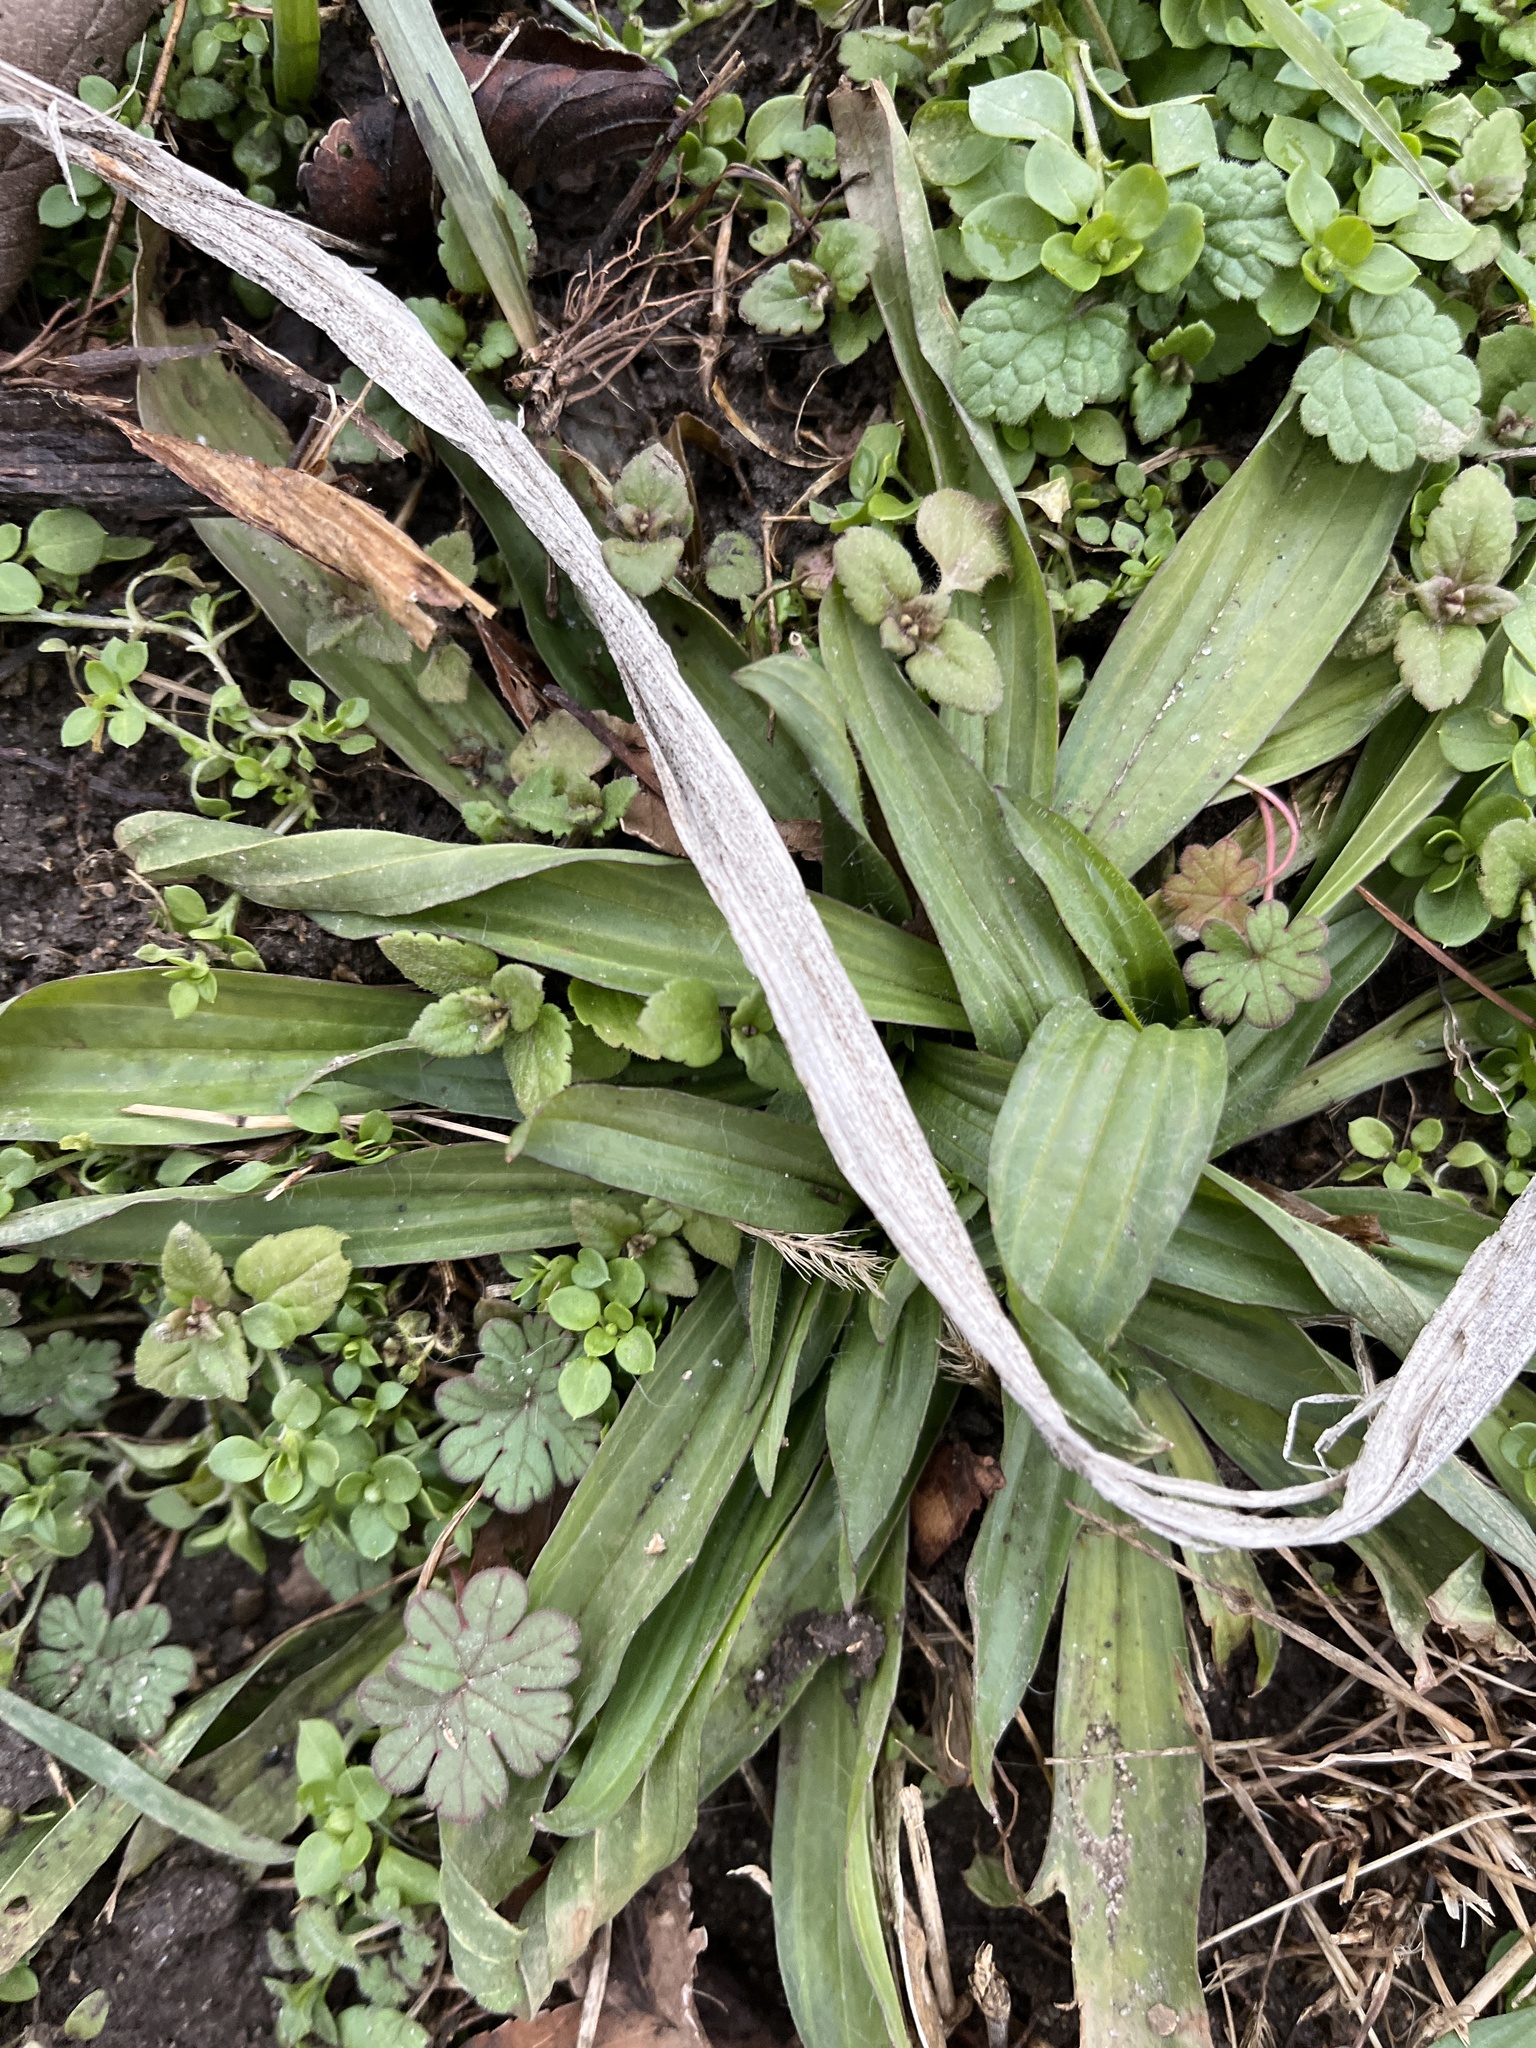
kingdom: Plantae
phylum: Tracheophyta
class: Magnoliopsida
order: Lamiales
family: Plantaginaceae
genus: Plantago
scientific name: Plantago lanceolata
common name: Ribwort plantain
